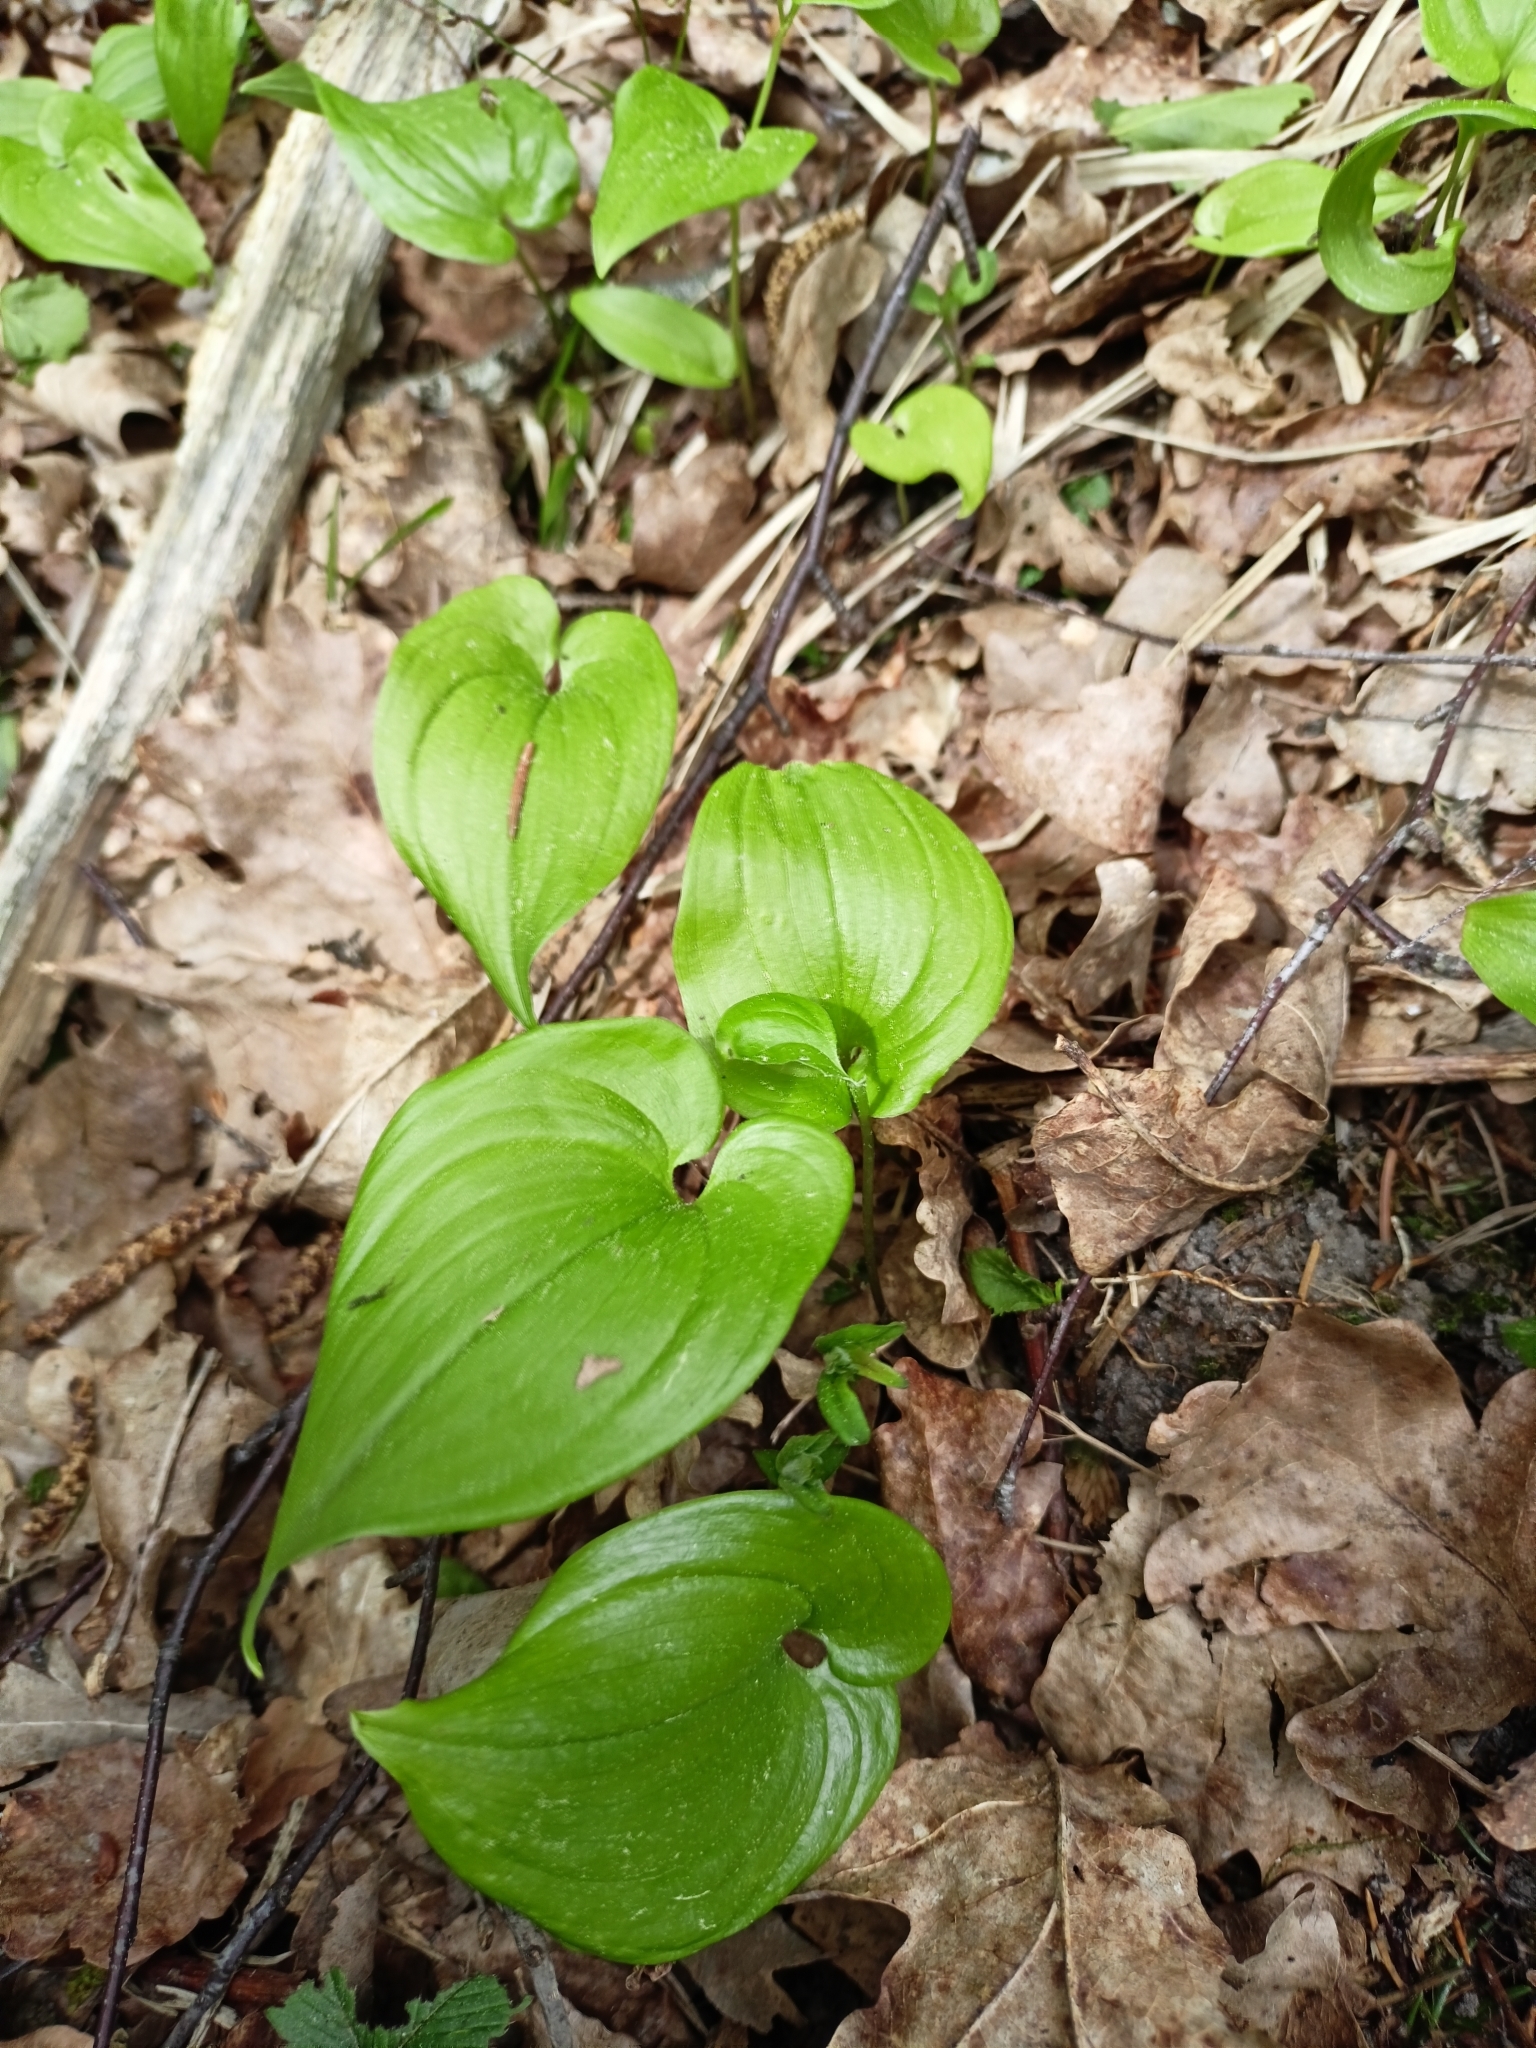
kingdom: Plantae
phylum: Tracheophyta
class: Liliopsida
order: Asparagales
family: Asparagaceae
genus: Maianthemum
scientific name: Maianthemum bifolium
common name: May lily
